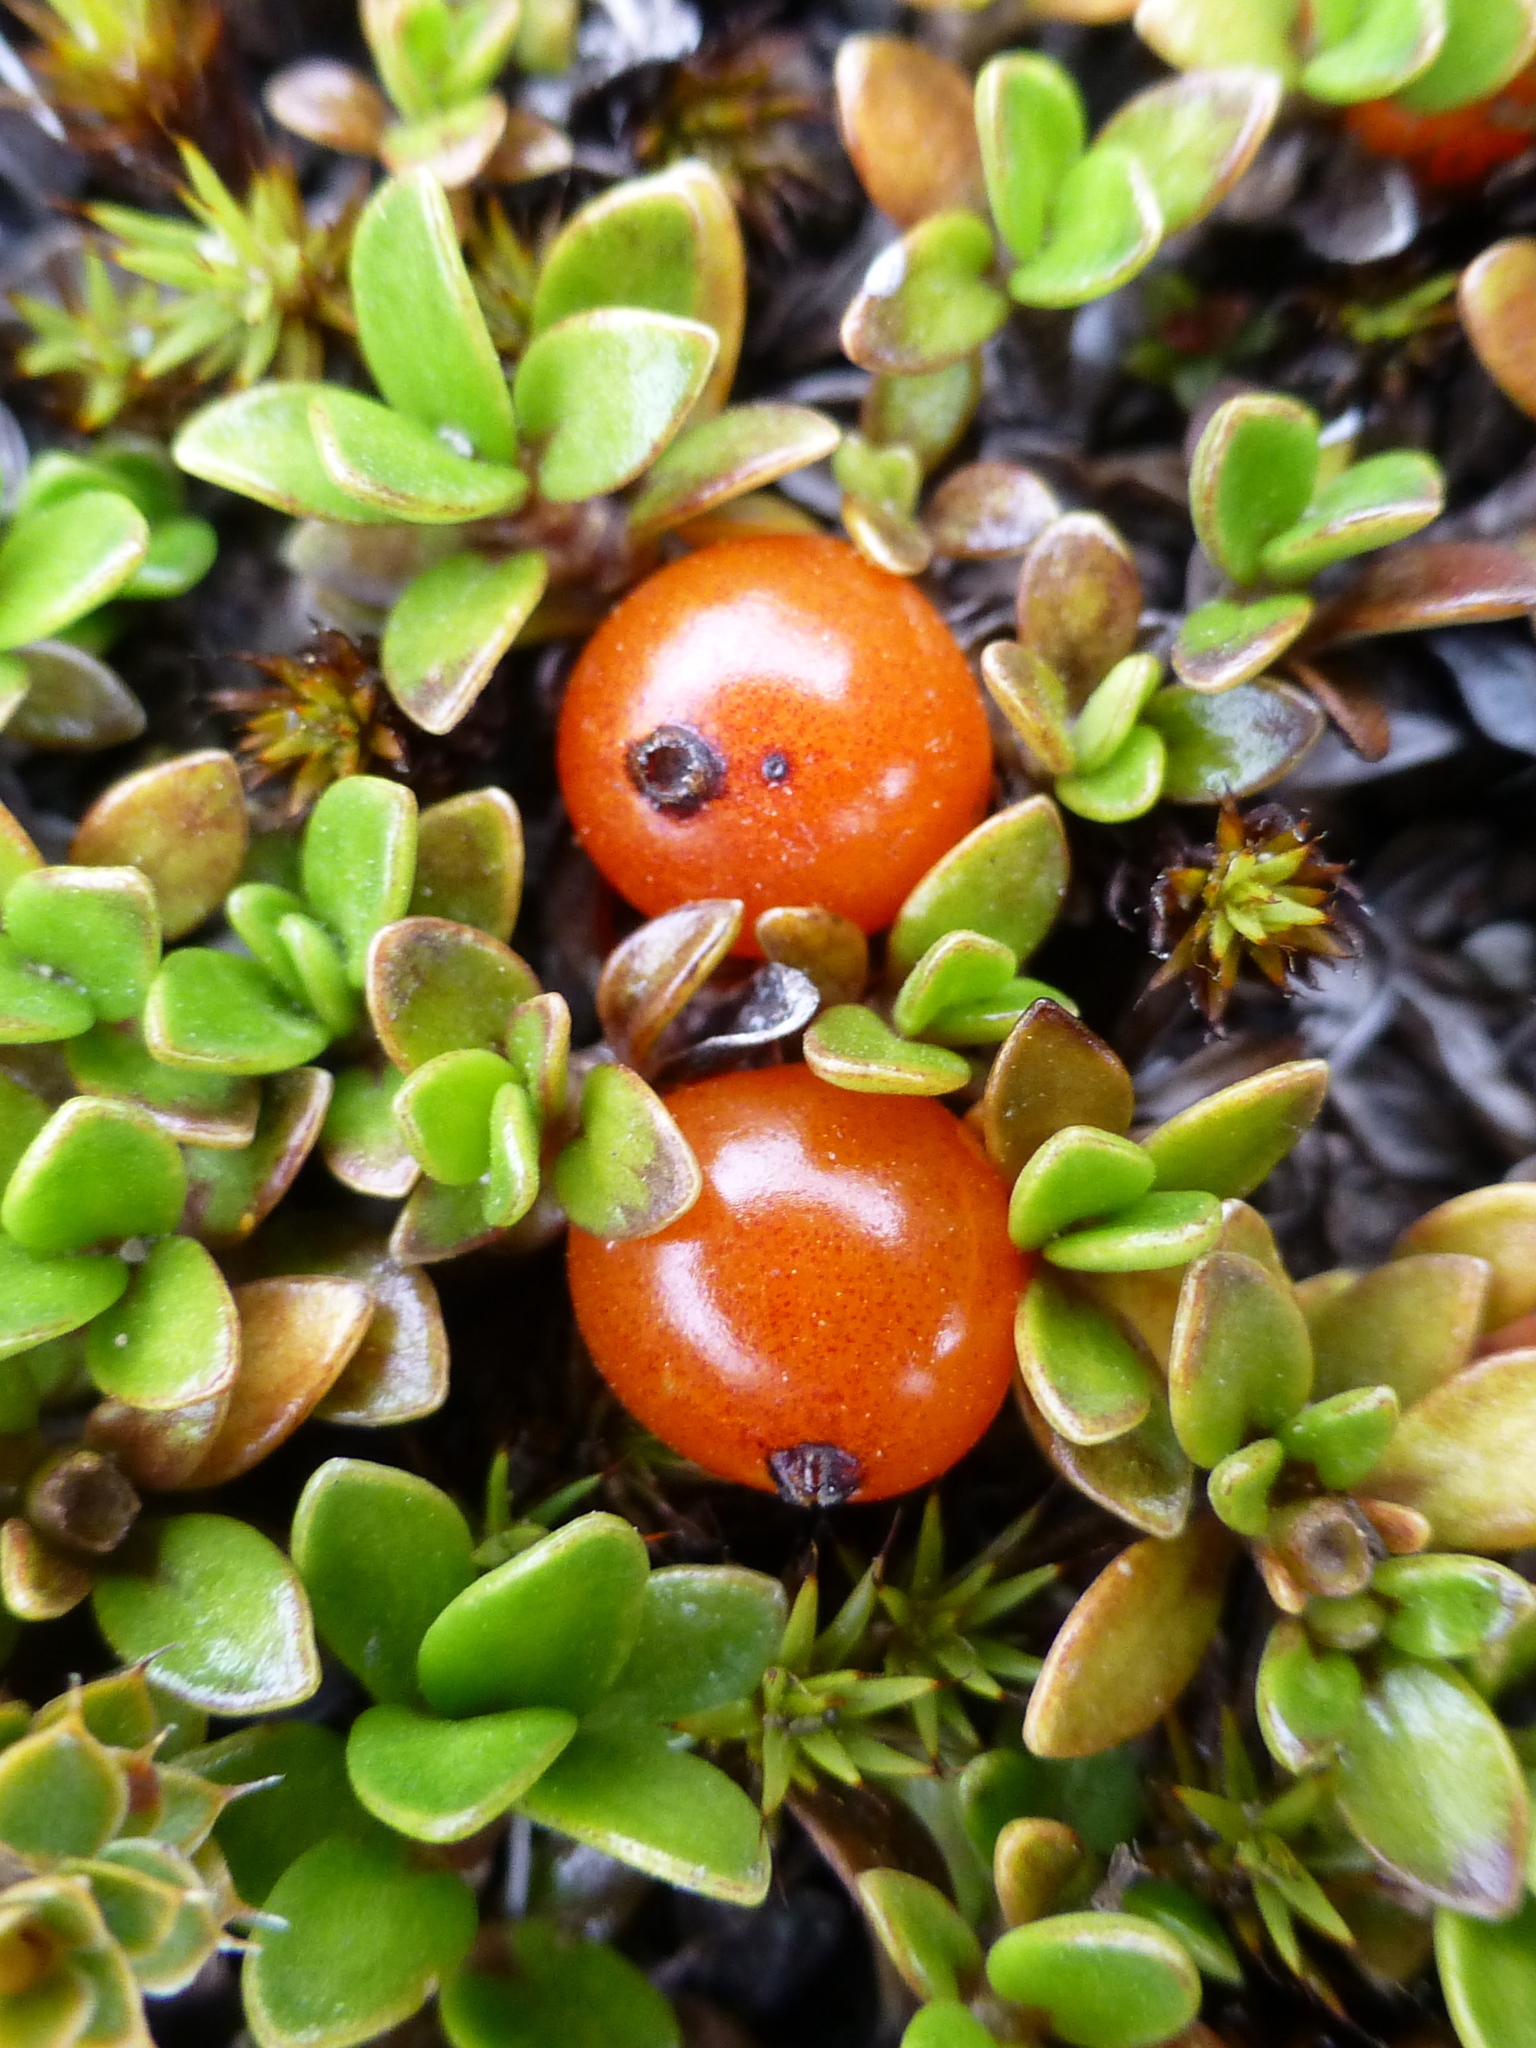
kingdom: Plantae
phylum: Tracheophyta
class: Magnoliopsida
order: Gentianales
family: Rubiaceae
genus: Coprosma
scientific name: Coprosma perpusilla
